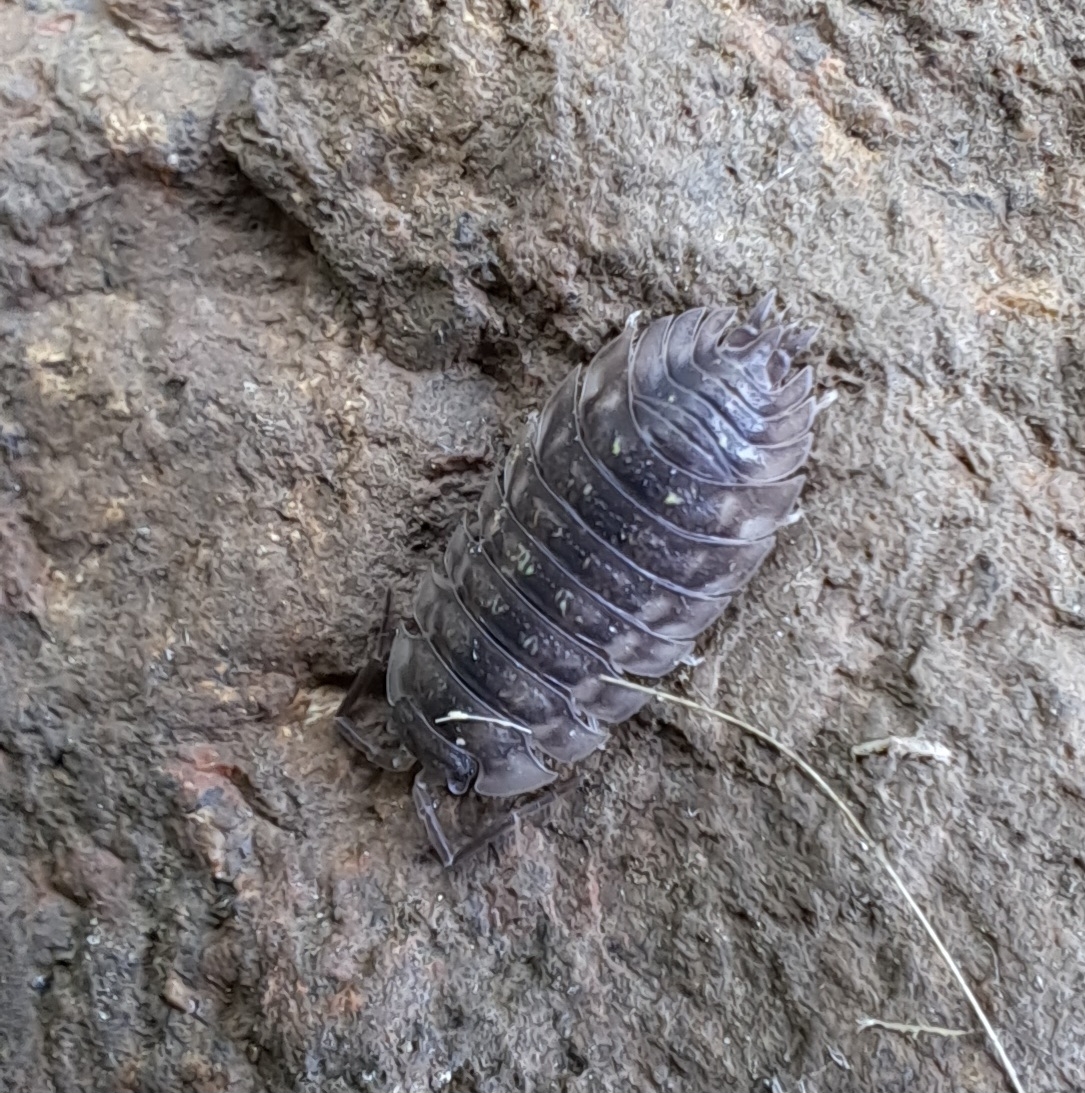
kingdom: Animalia
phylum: Arthropoda
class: Malacostraca
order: Isopoda
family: Oniscidae
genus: Oniscus
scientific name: Oniscus asellus
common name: Common shiny woodlouse
